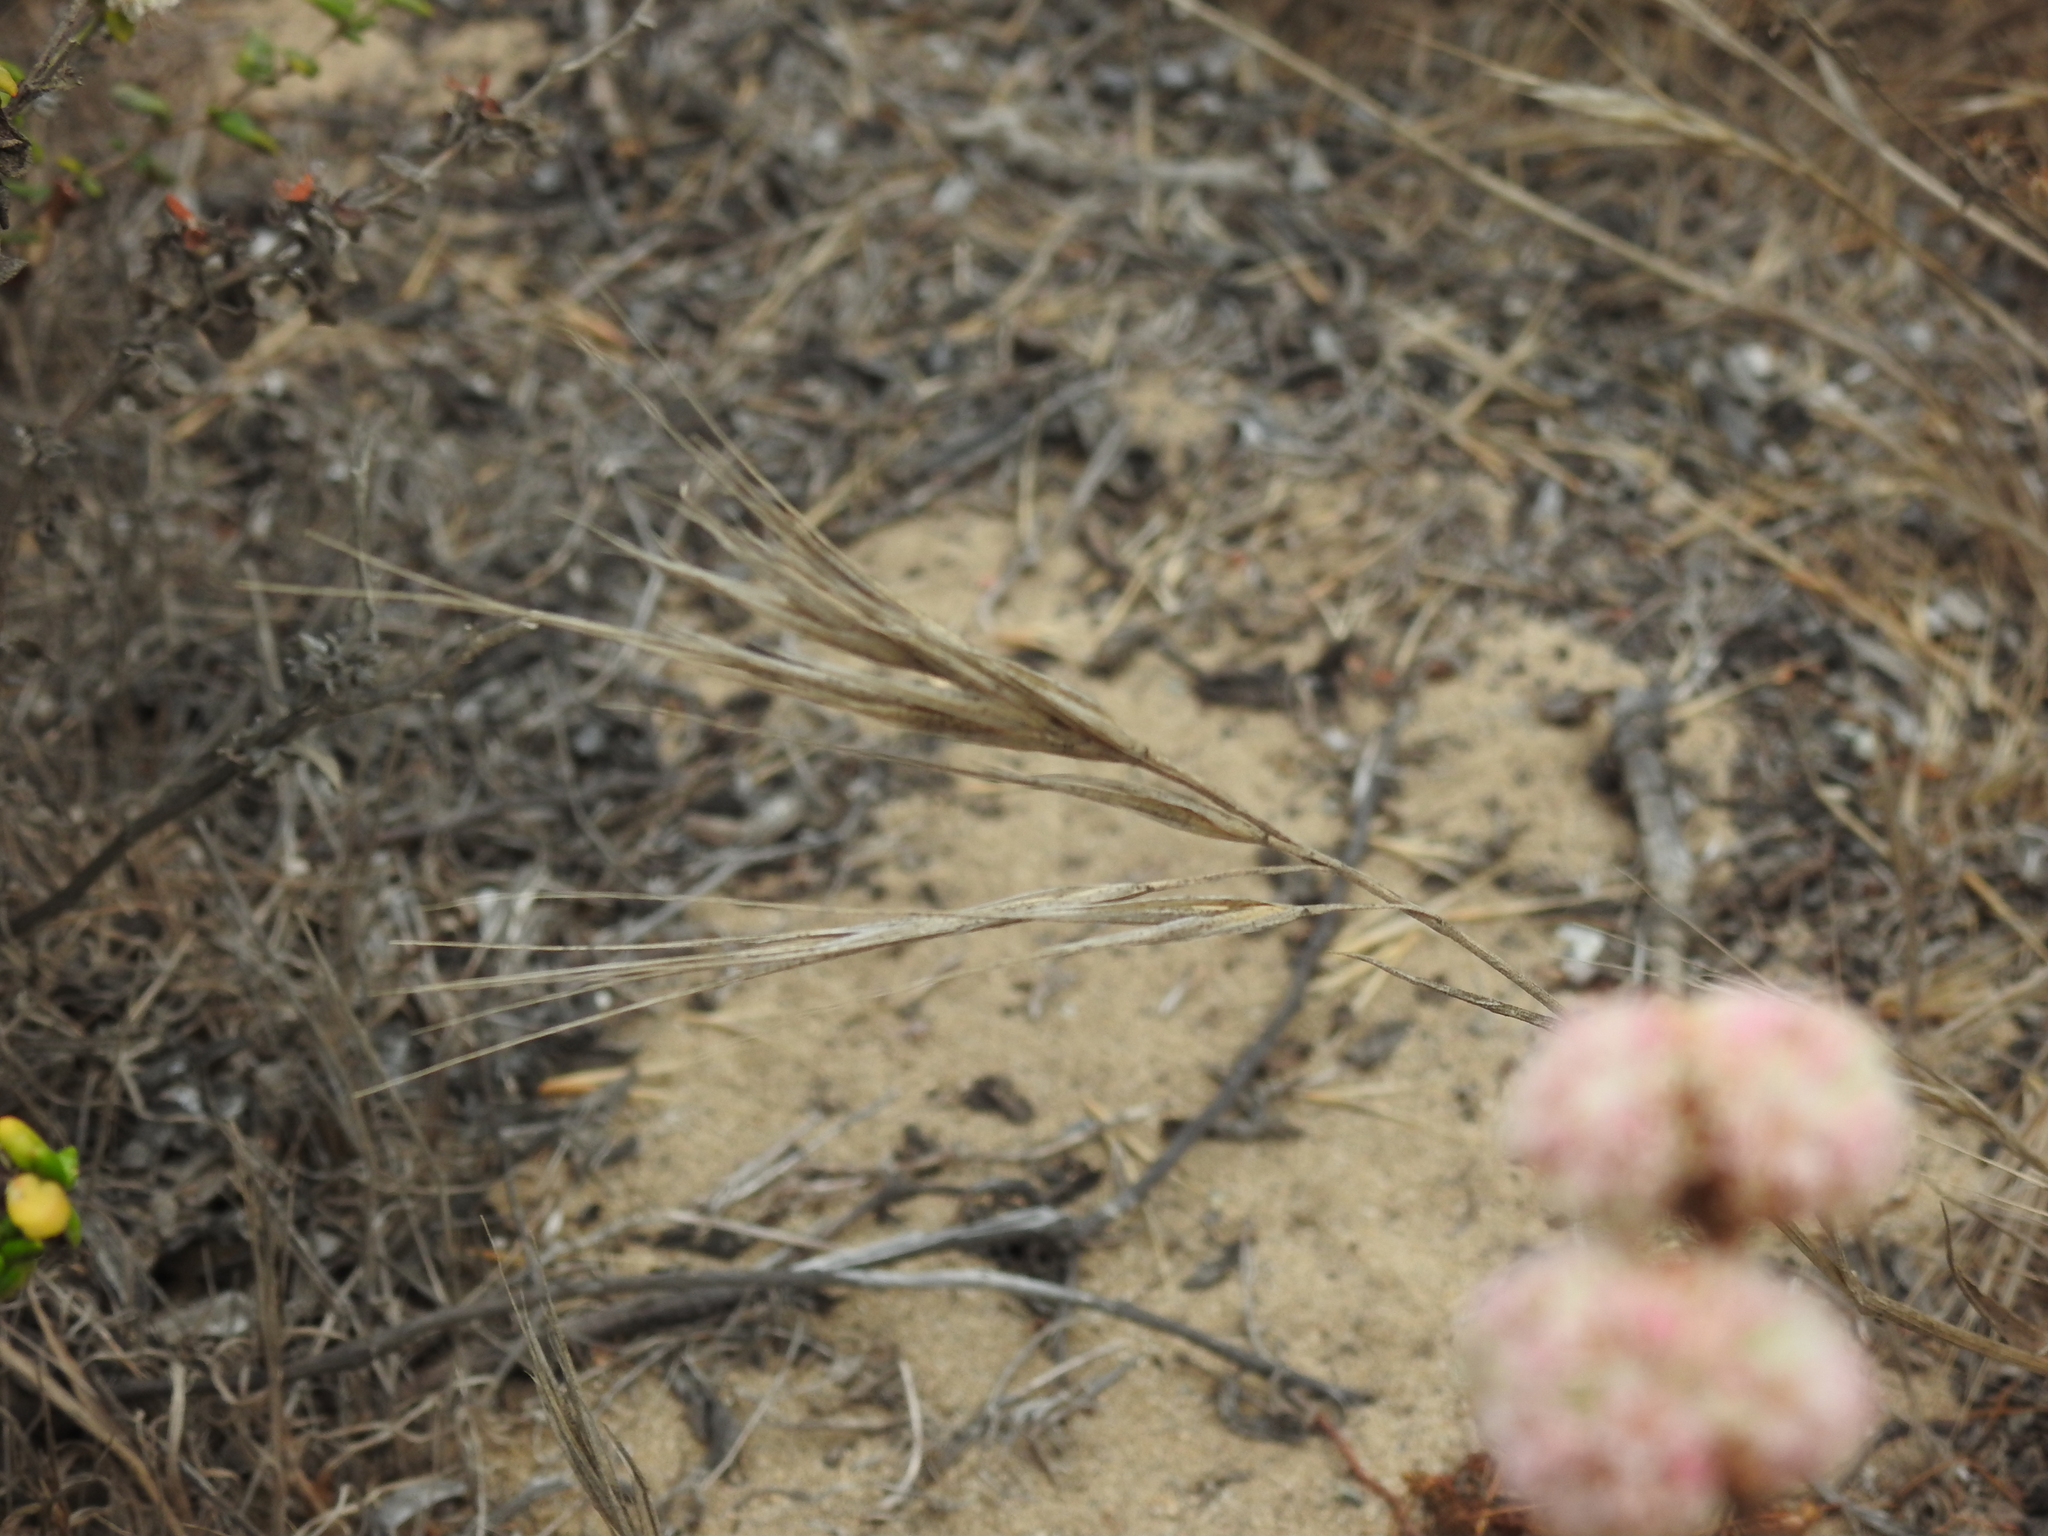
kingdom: Plantae
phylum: Tracheophyta
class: Liliopsida
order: Poales
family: Poaceae
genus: Bromus
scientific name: Bromus diandrus
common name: Ripgut brome
